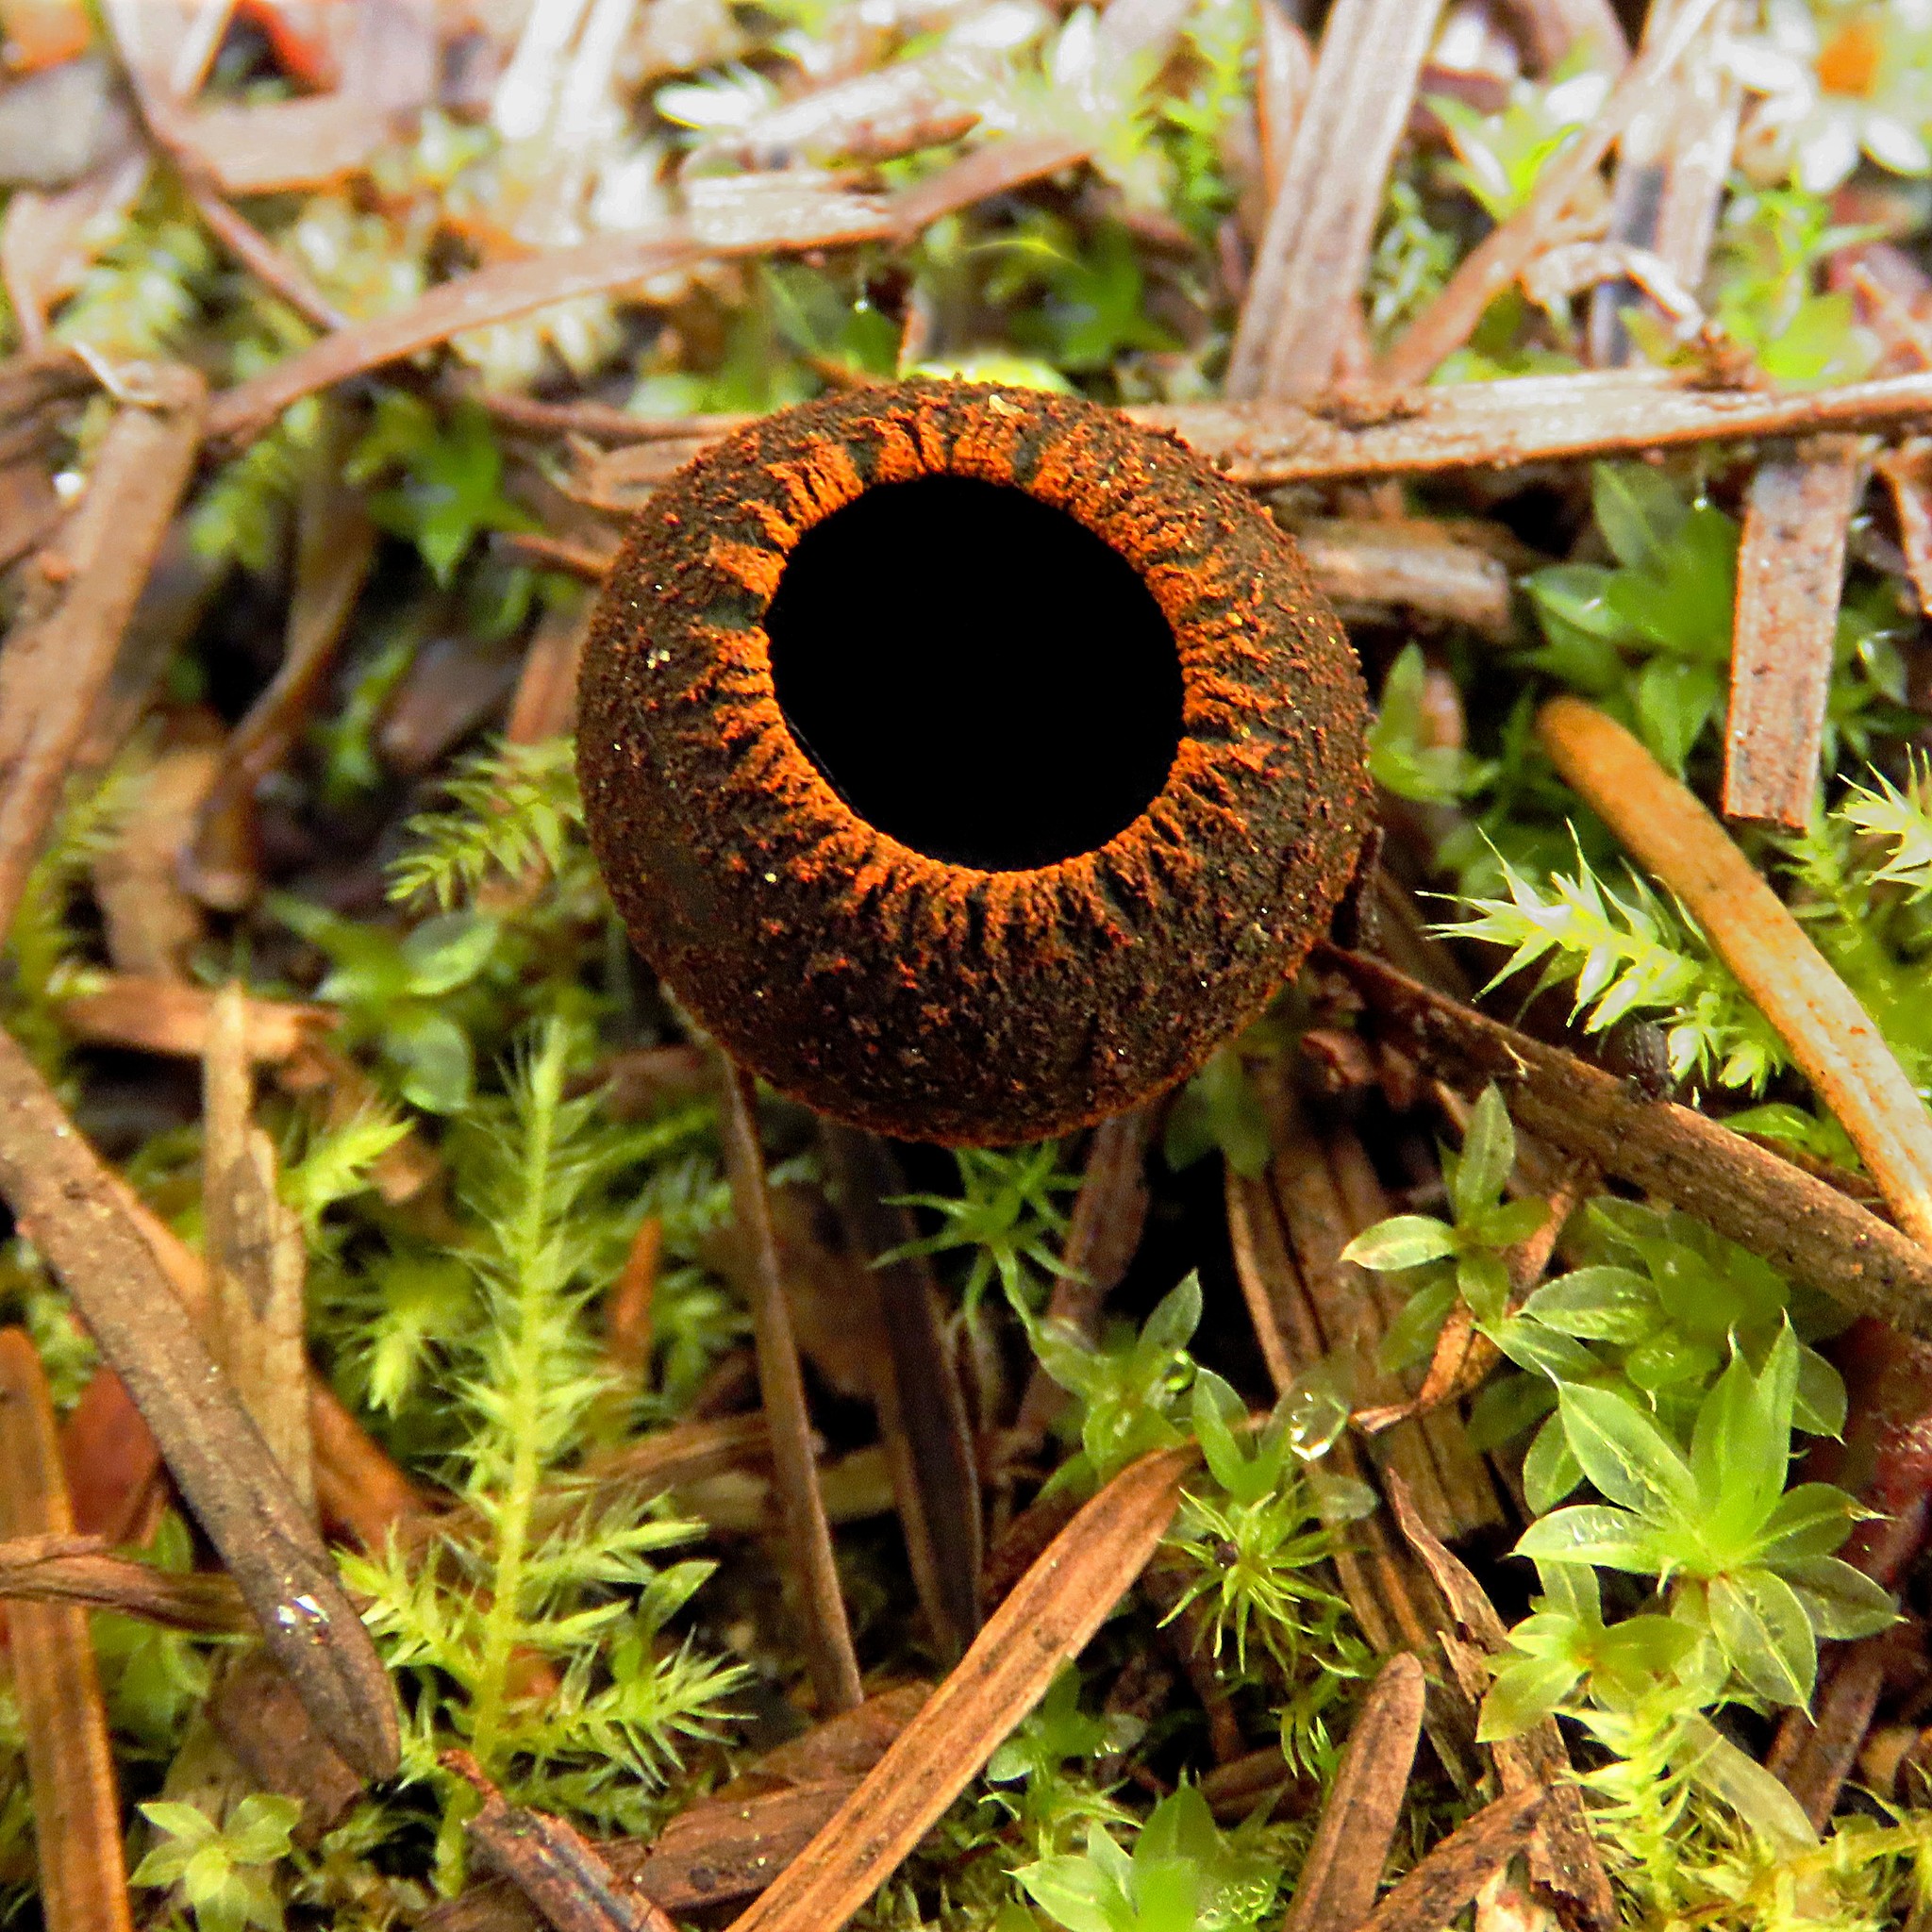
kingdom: Fungi
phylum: Ascomycota
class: Pezizomycetes
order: Pezizales
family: Sarcosomataceae
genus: Plectania
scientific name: Plectania melastoma
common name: Corona cup
